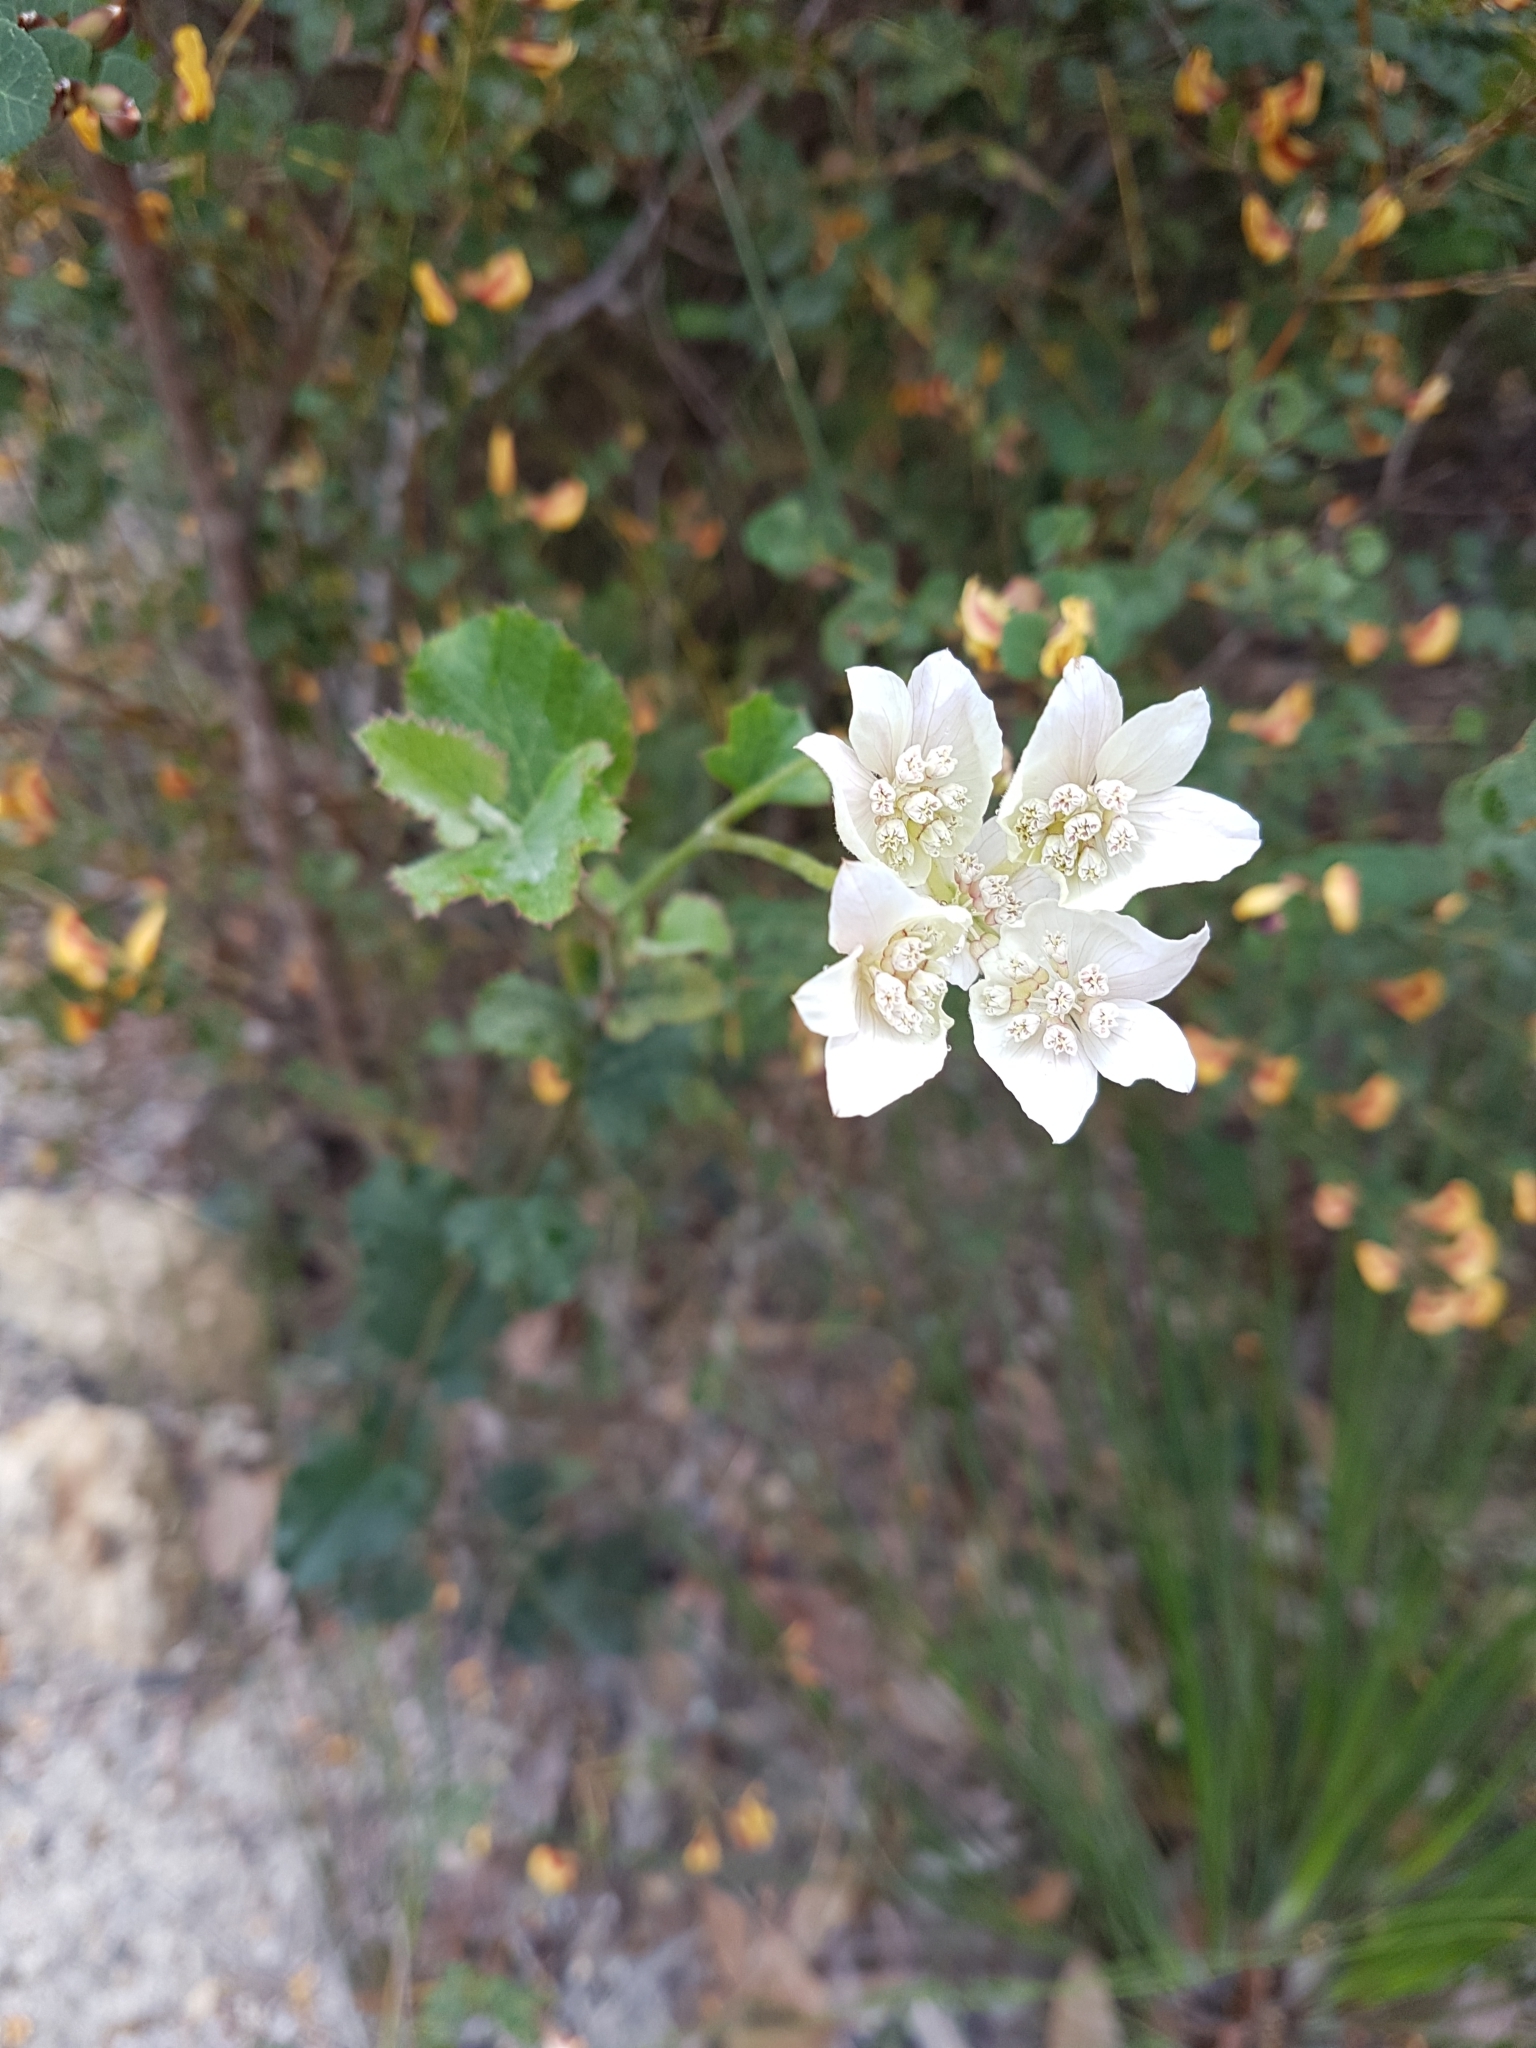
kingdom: Plantae
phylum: Tracheophyta
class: Magnoliopsida
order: Apiales
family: Apiaceae
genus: Xanthosia
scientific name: Xanthosia rotundifolia
